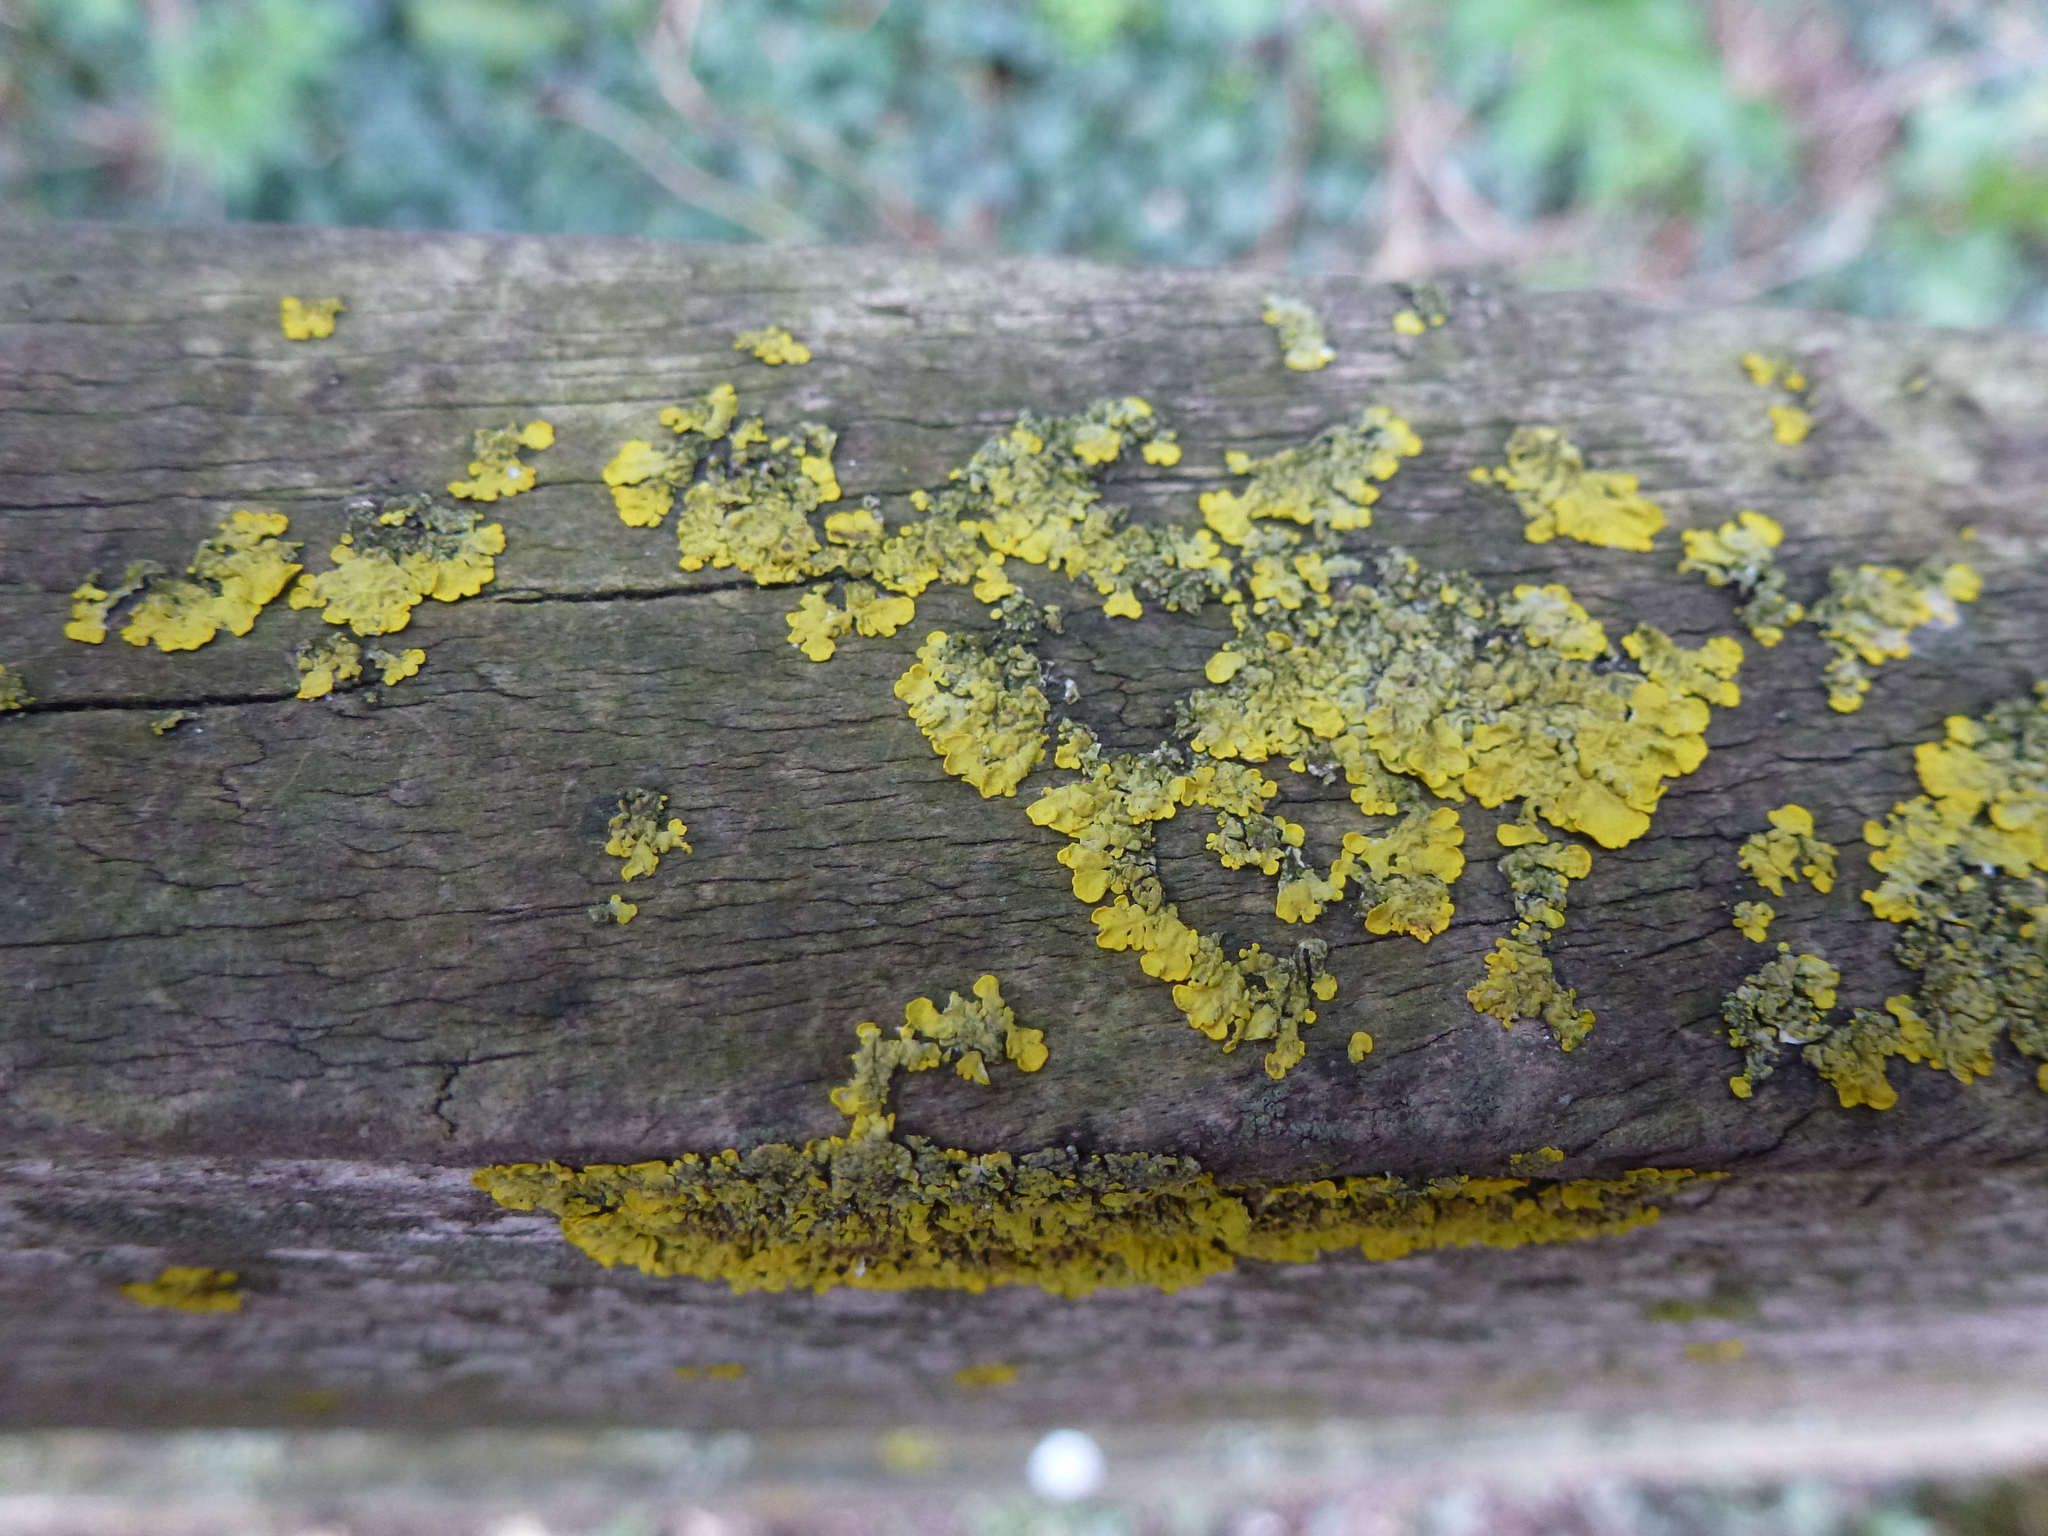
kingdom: Fungi
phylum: Ascomycota
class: Lecanoromycetes
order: Teloschistales
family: Teloschistaceae
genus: Xanthoria
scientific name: Xanthoria parietina
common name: Common orange lichen
